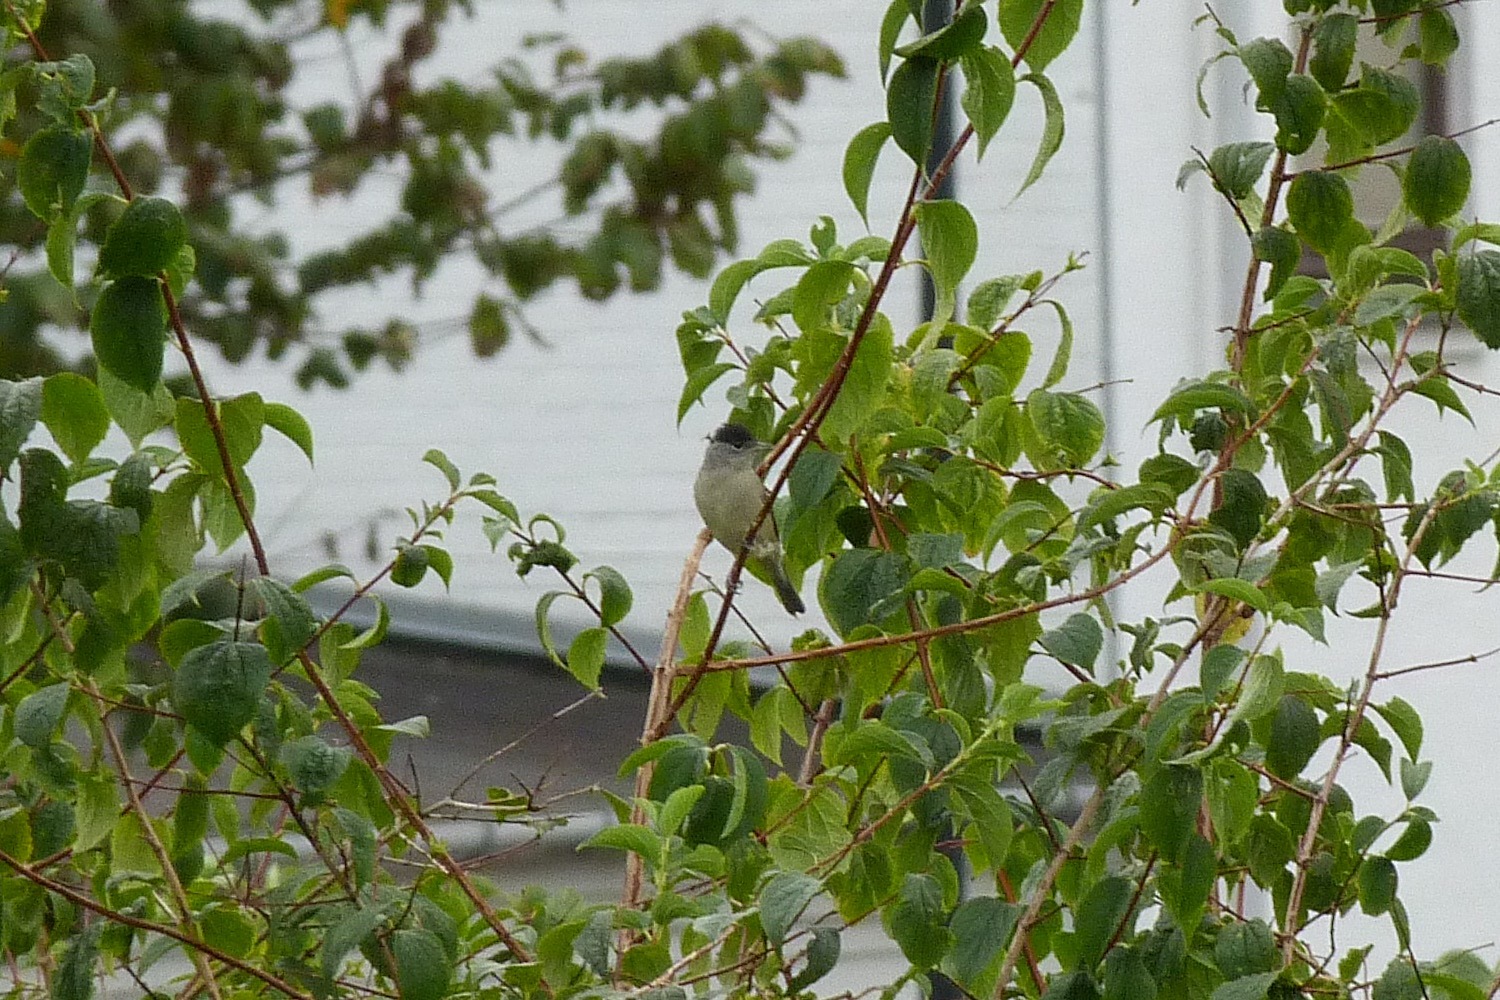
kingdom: Animalia
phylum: Chordata
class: Aves
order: Passeriformes
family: Sylviidae
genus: Sylvia
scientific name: Sylvia atricapilla
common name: Eurasian blackcap
